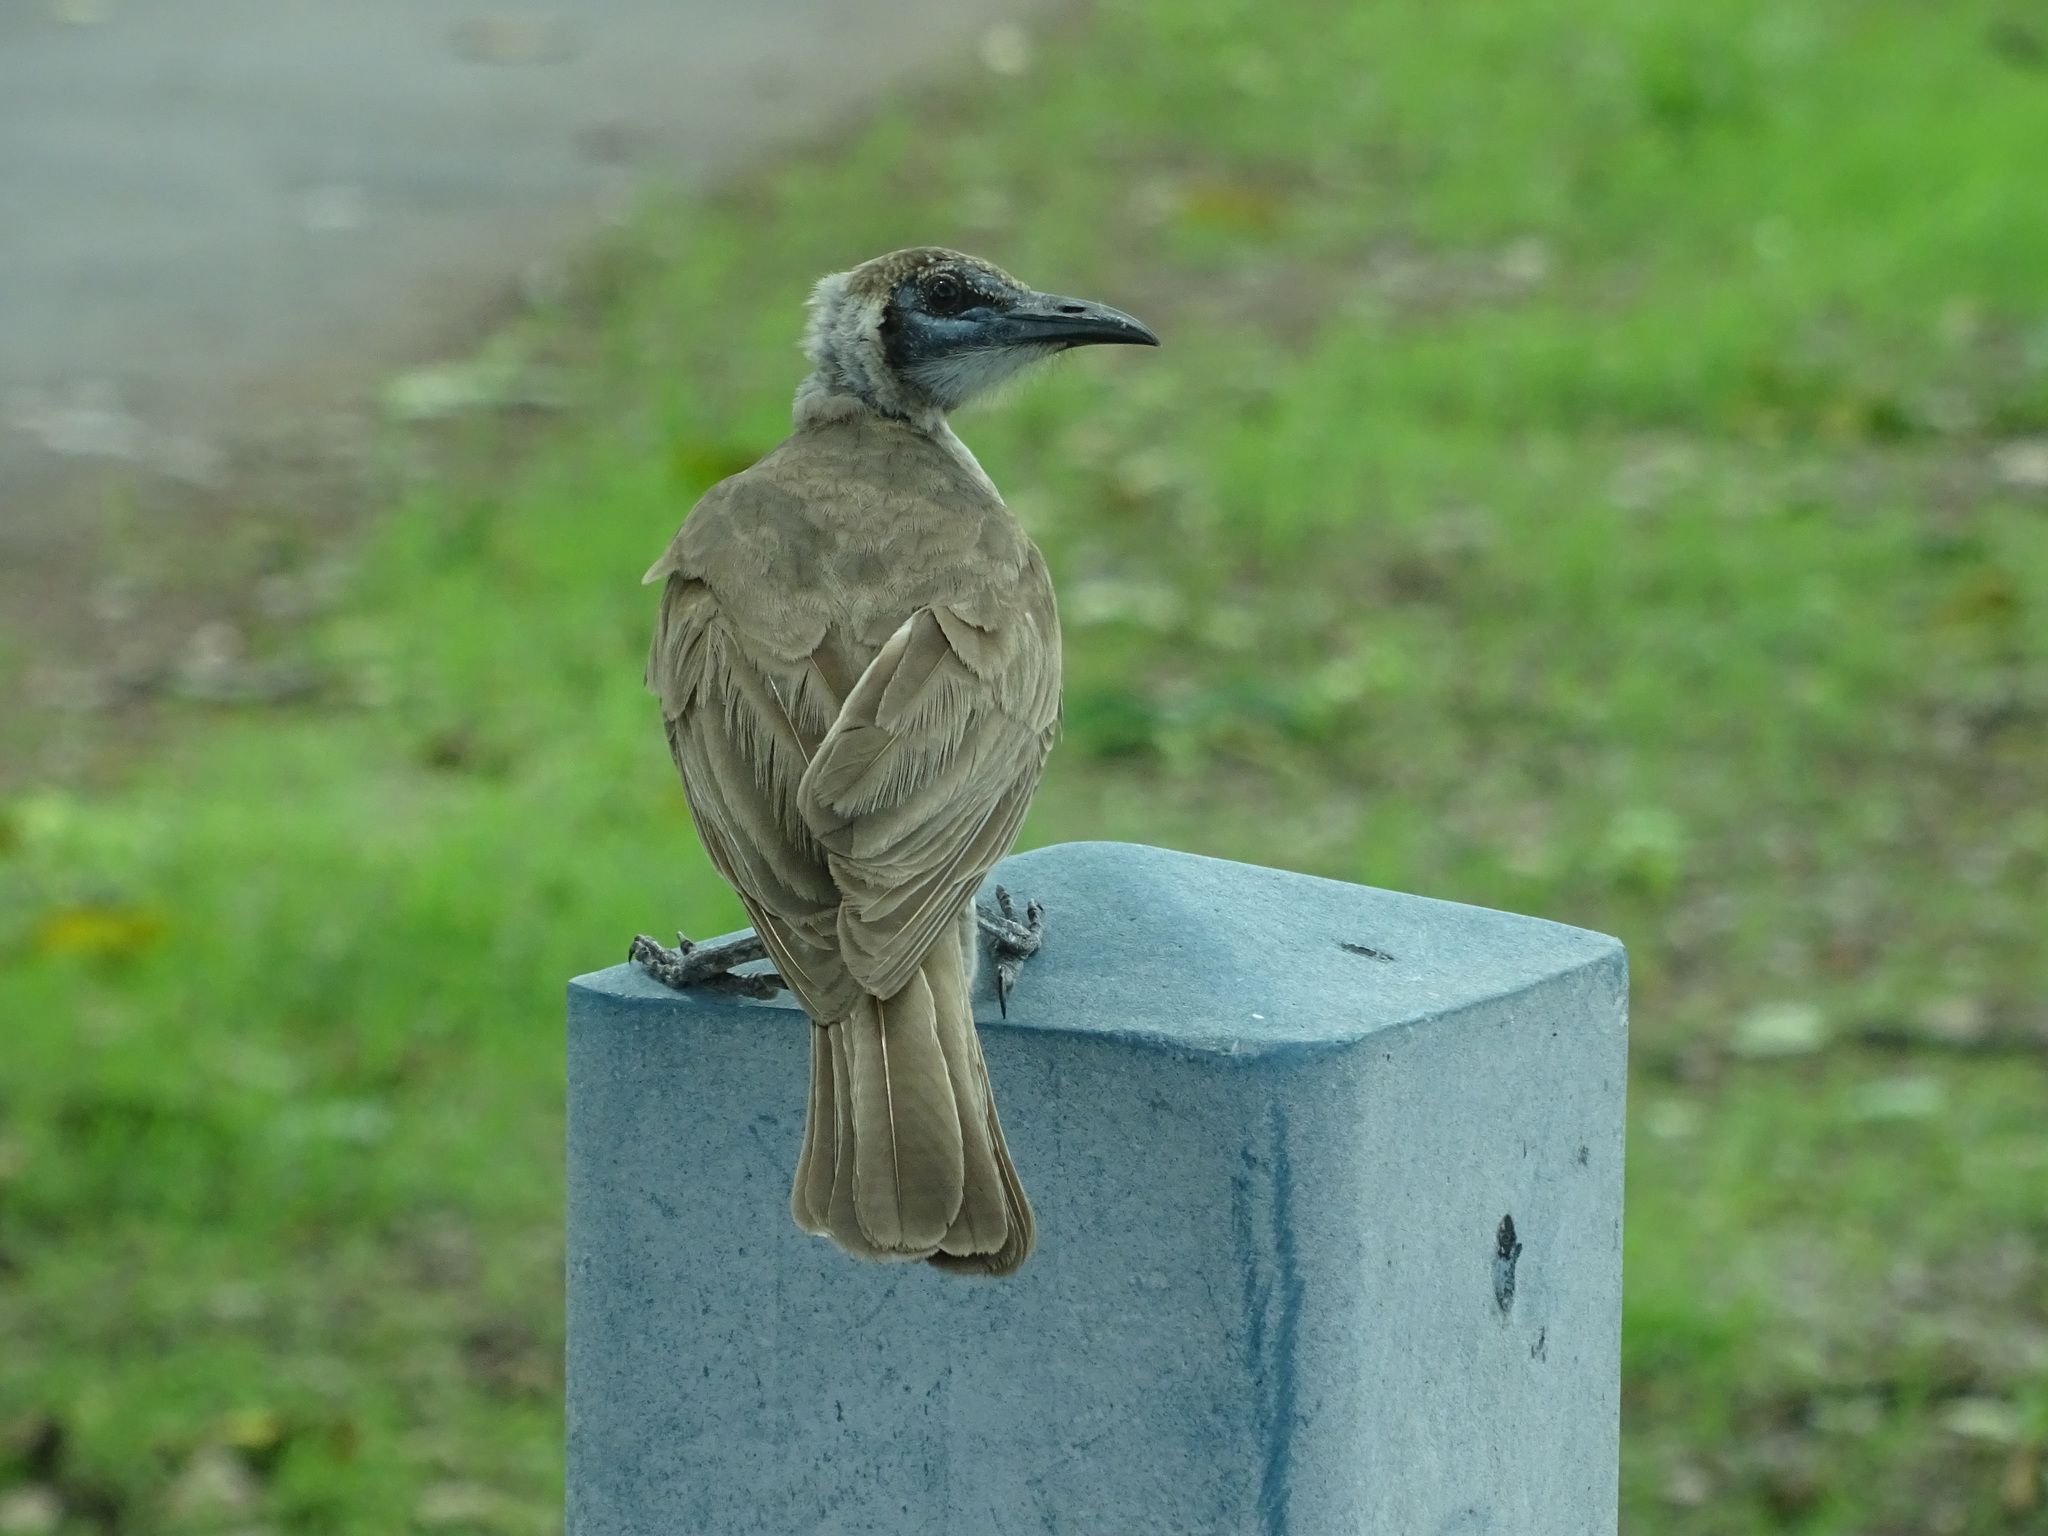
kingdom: Animalia
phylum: Chordata
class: Aves
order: Passeriformes
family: Meliphagidae
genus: Philemon
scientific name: Philemon citreogularis
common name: Little friarbird
